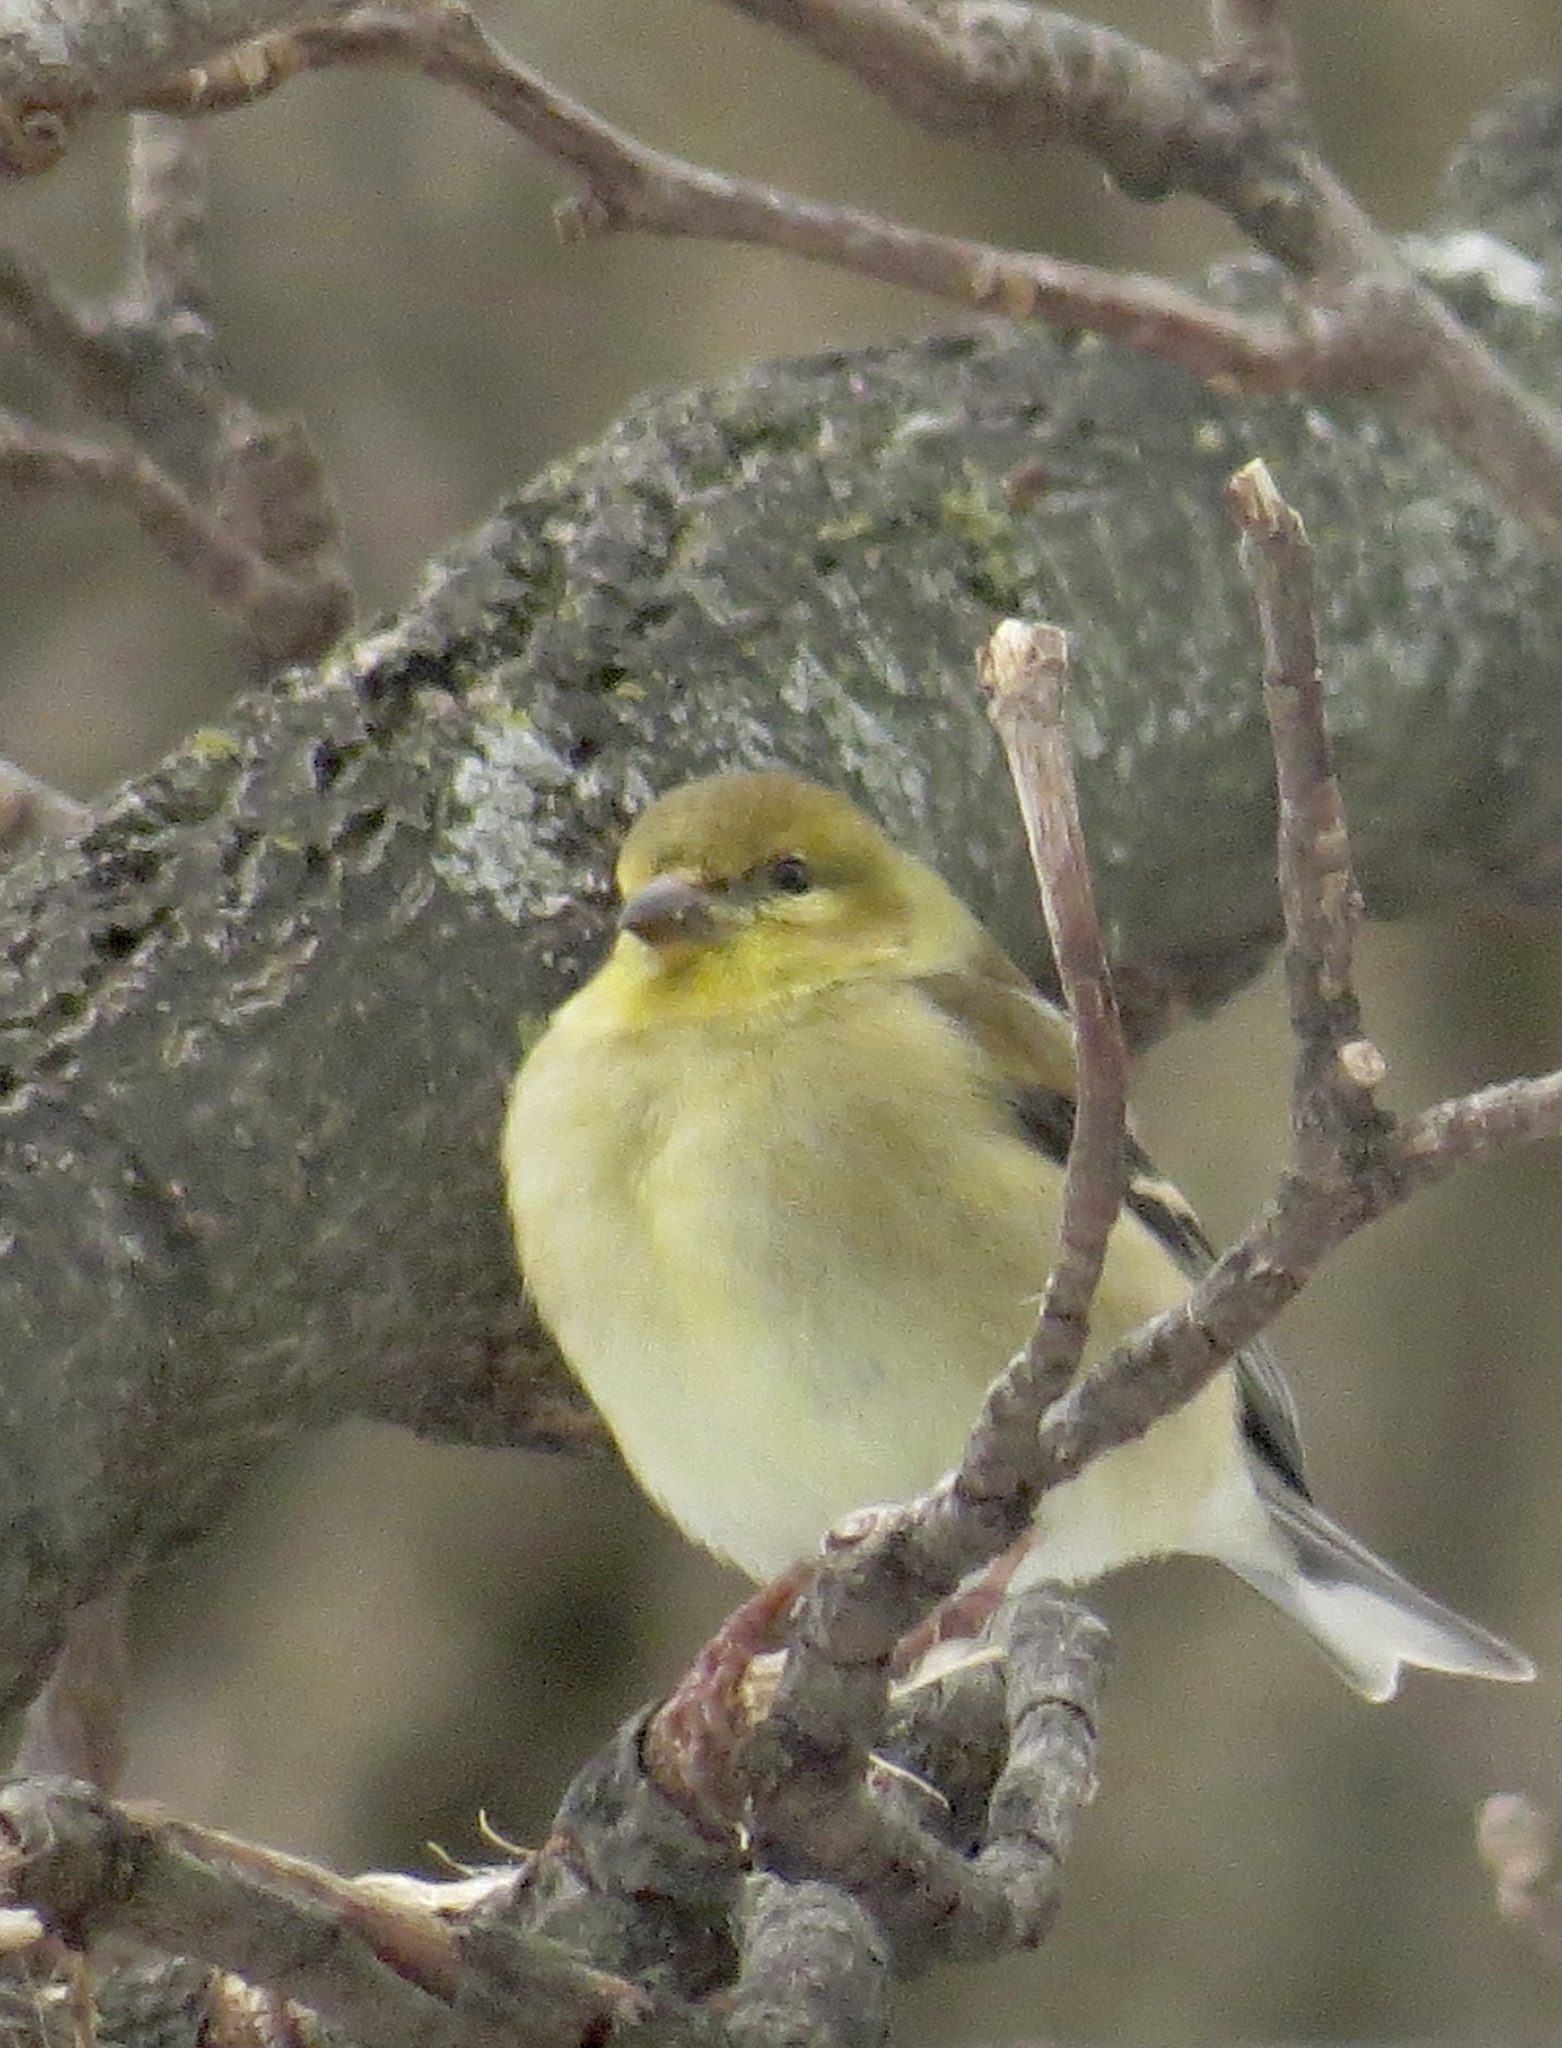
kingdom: Animalia
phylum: Chordata
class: Aves
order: Passeriformes
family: Fringillidae
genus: Spinus
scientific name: Spinus tristis
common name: American goldfinch
